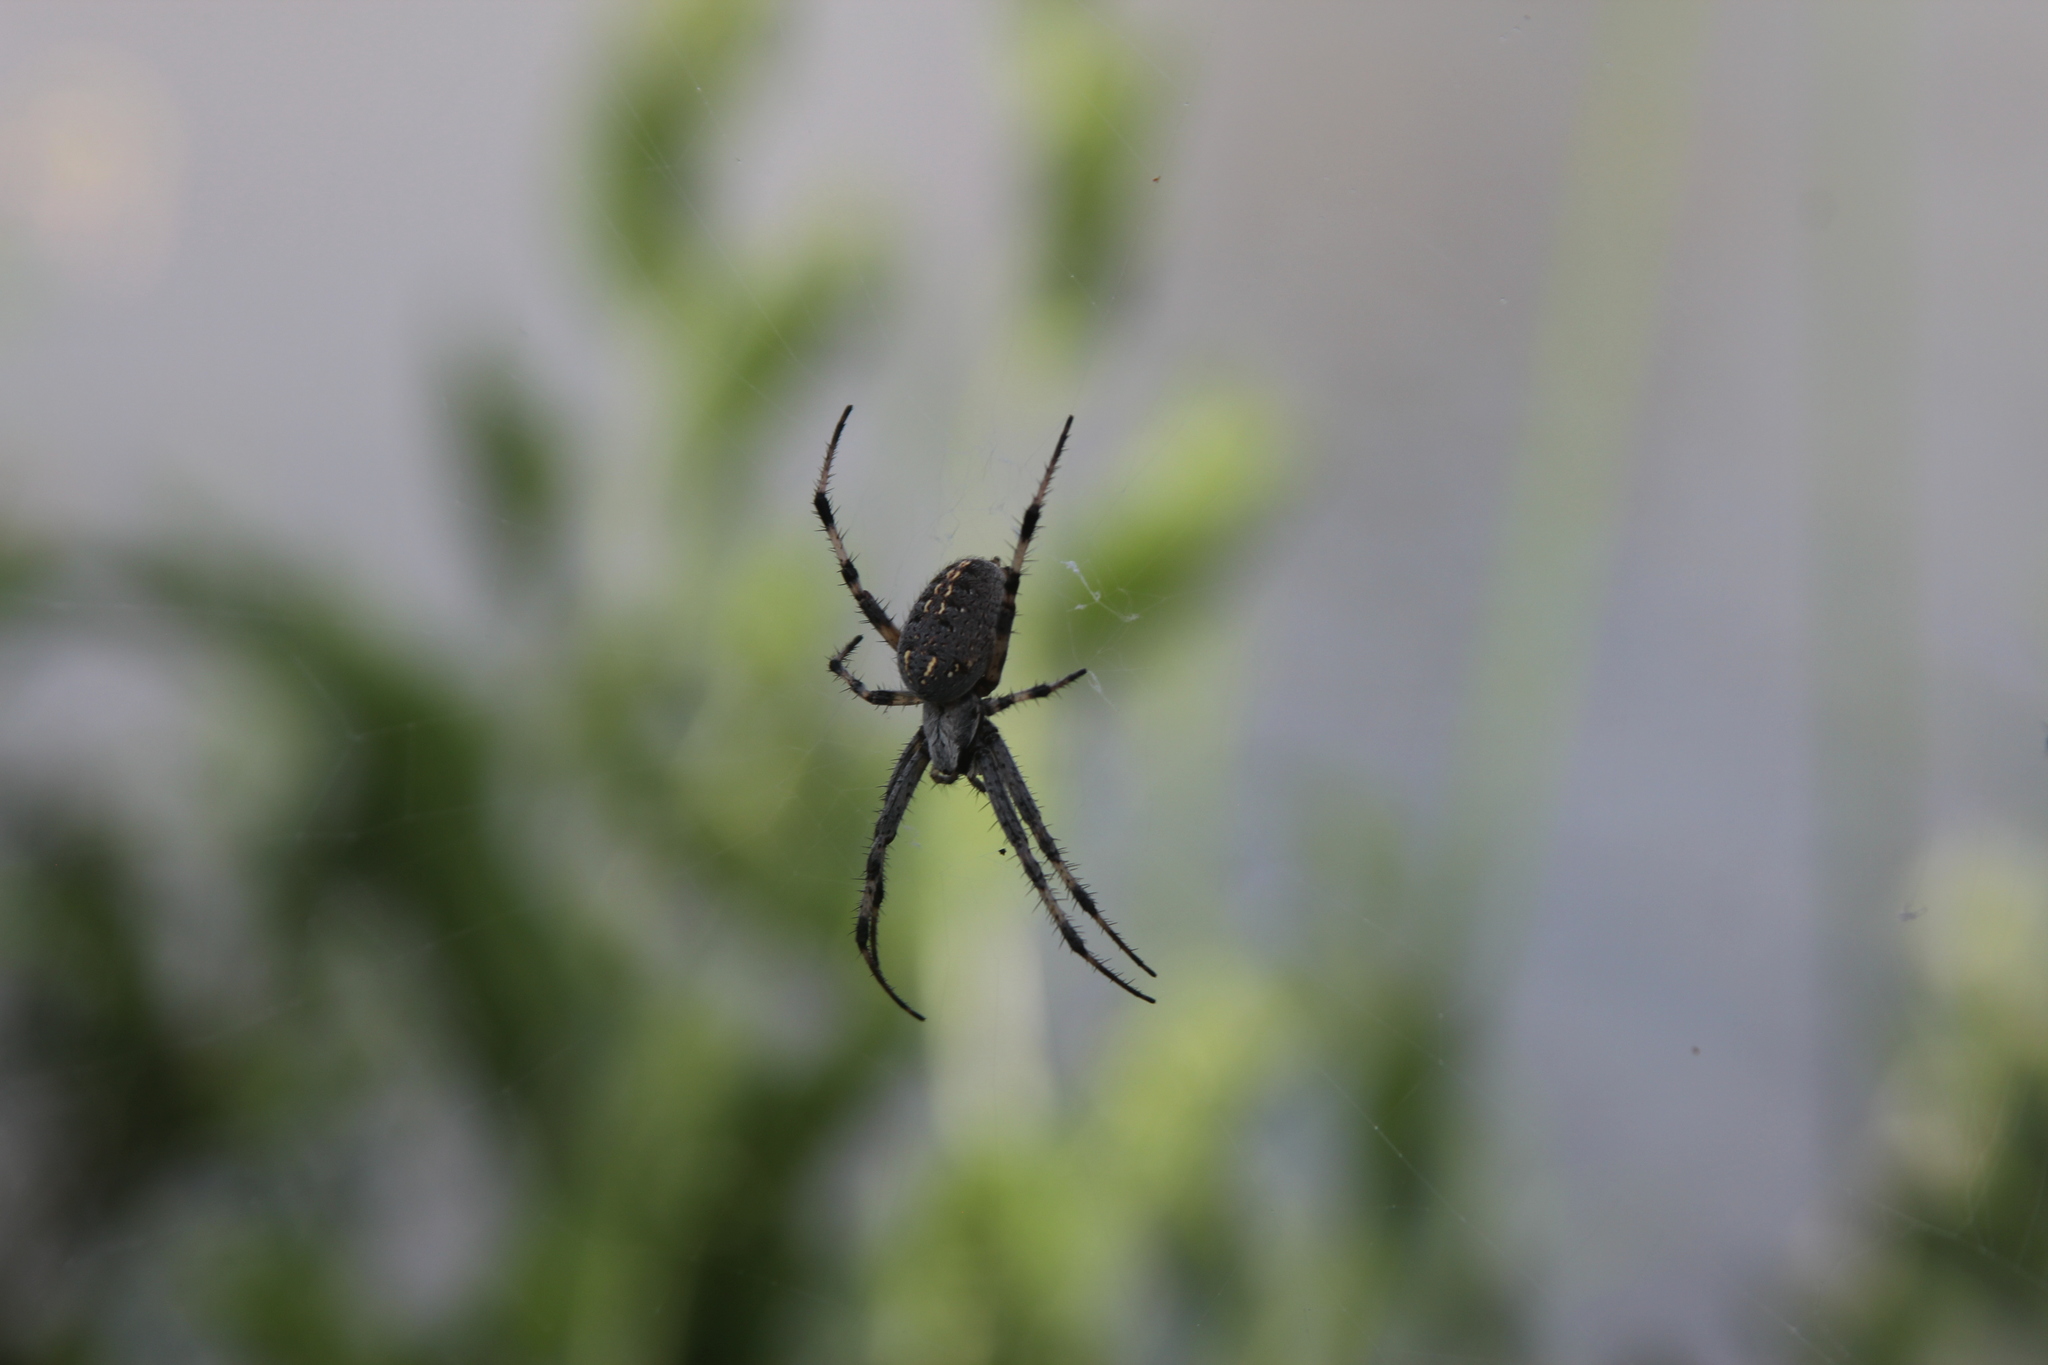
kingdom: Animalia
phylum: Arthropoda
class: Arachnida
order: Araneae
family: Araneidae
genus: Neoscona
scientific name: Neoscona oaxacensis
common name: Orb weavers
